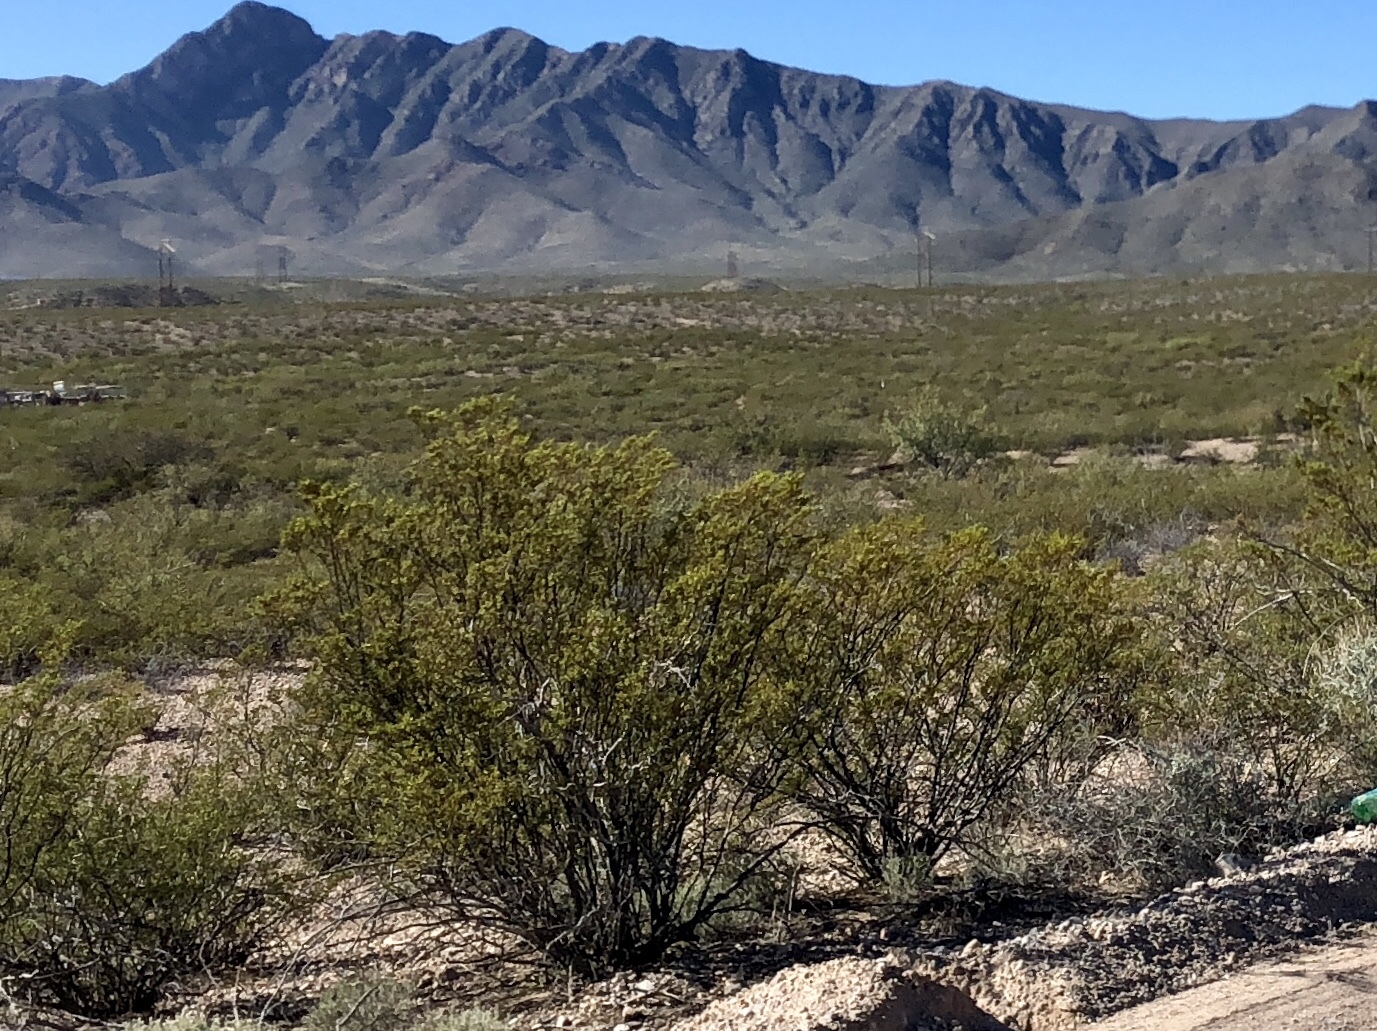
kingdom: Plantae
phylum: Tracheophyta
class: Magnoliopsida
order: Zygophyllales
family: Zygophyllaceae
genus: Larrea
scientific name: Larrea tridentata
